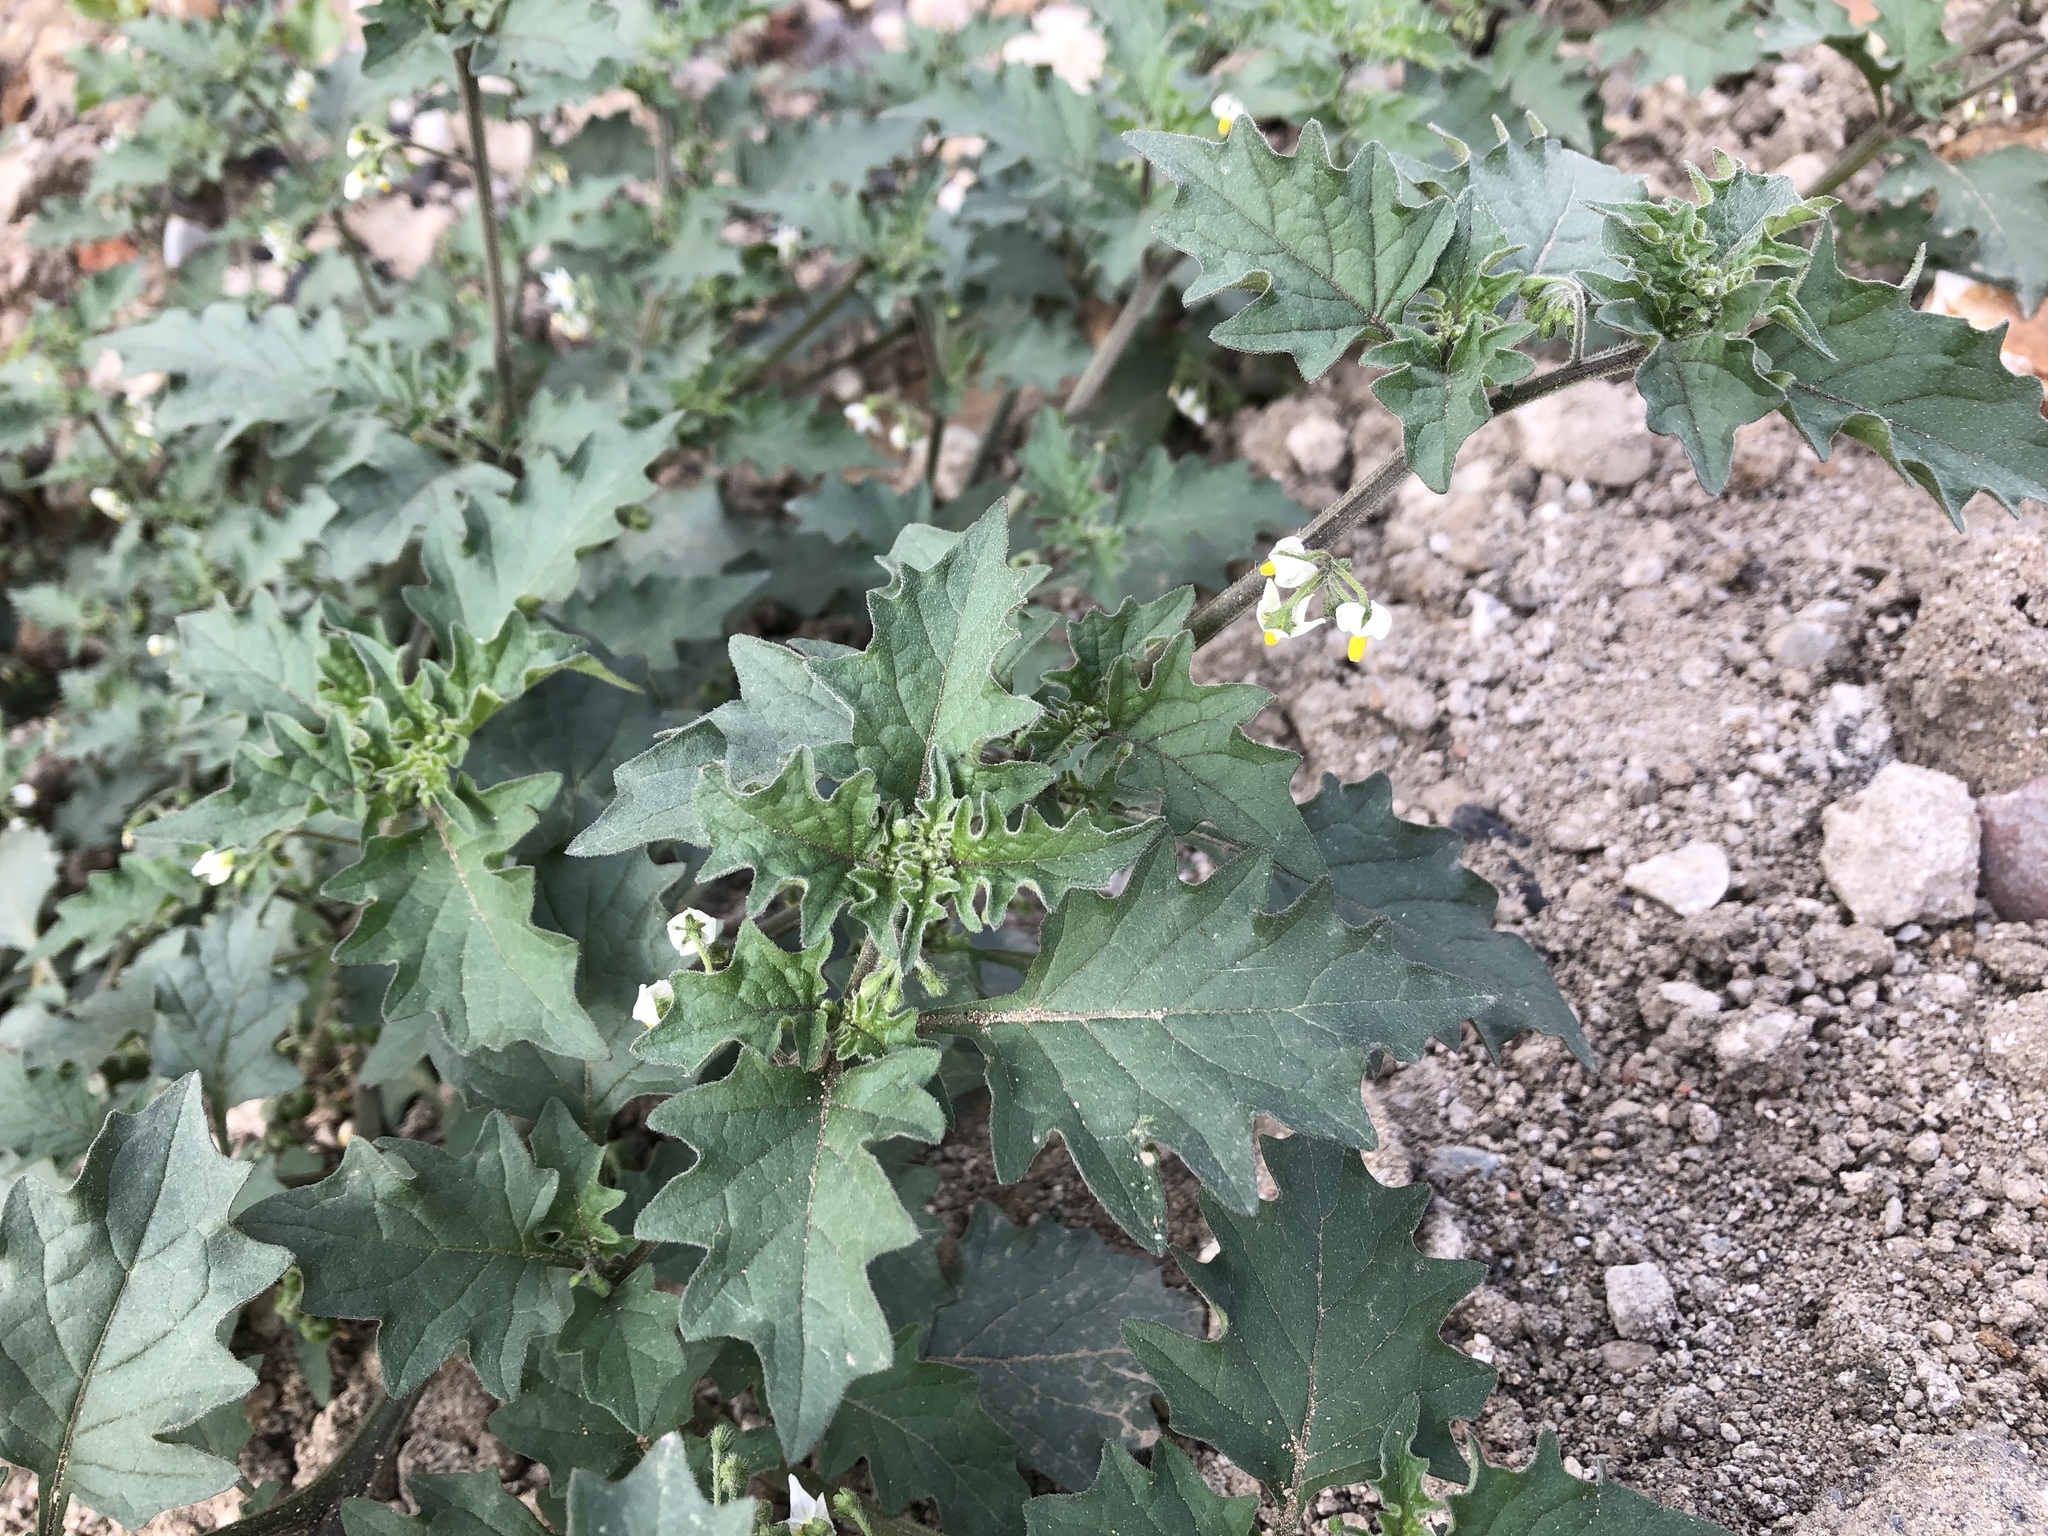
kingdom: Plantae
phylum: Tracheophyta
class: Magnoliopsida
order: Solanales
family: Solanaceae
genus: Solanum
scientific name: Solanum nigrum
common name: Black nightshade
